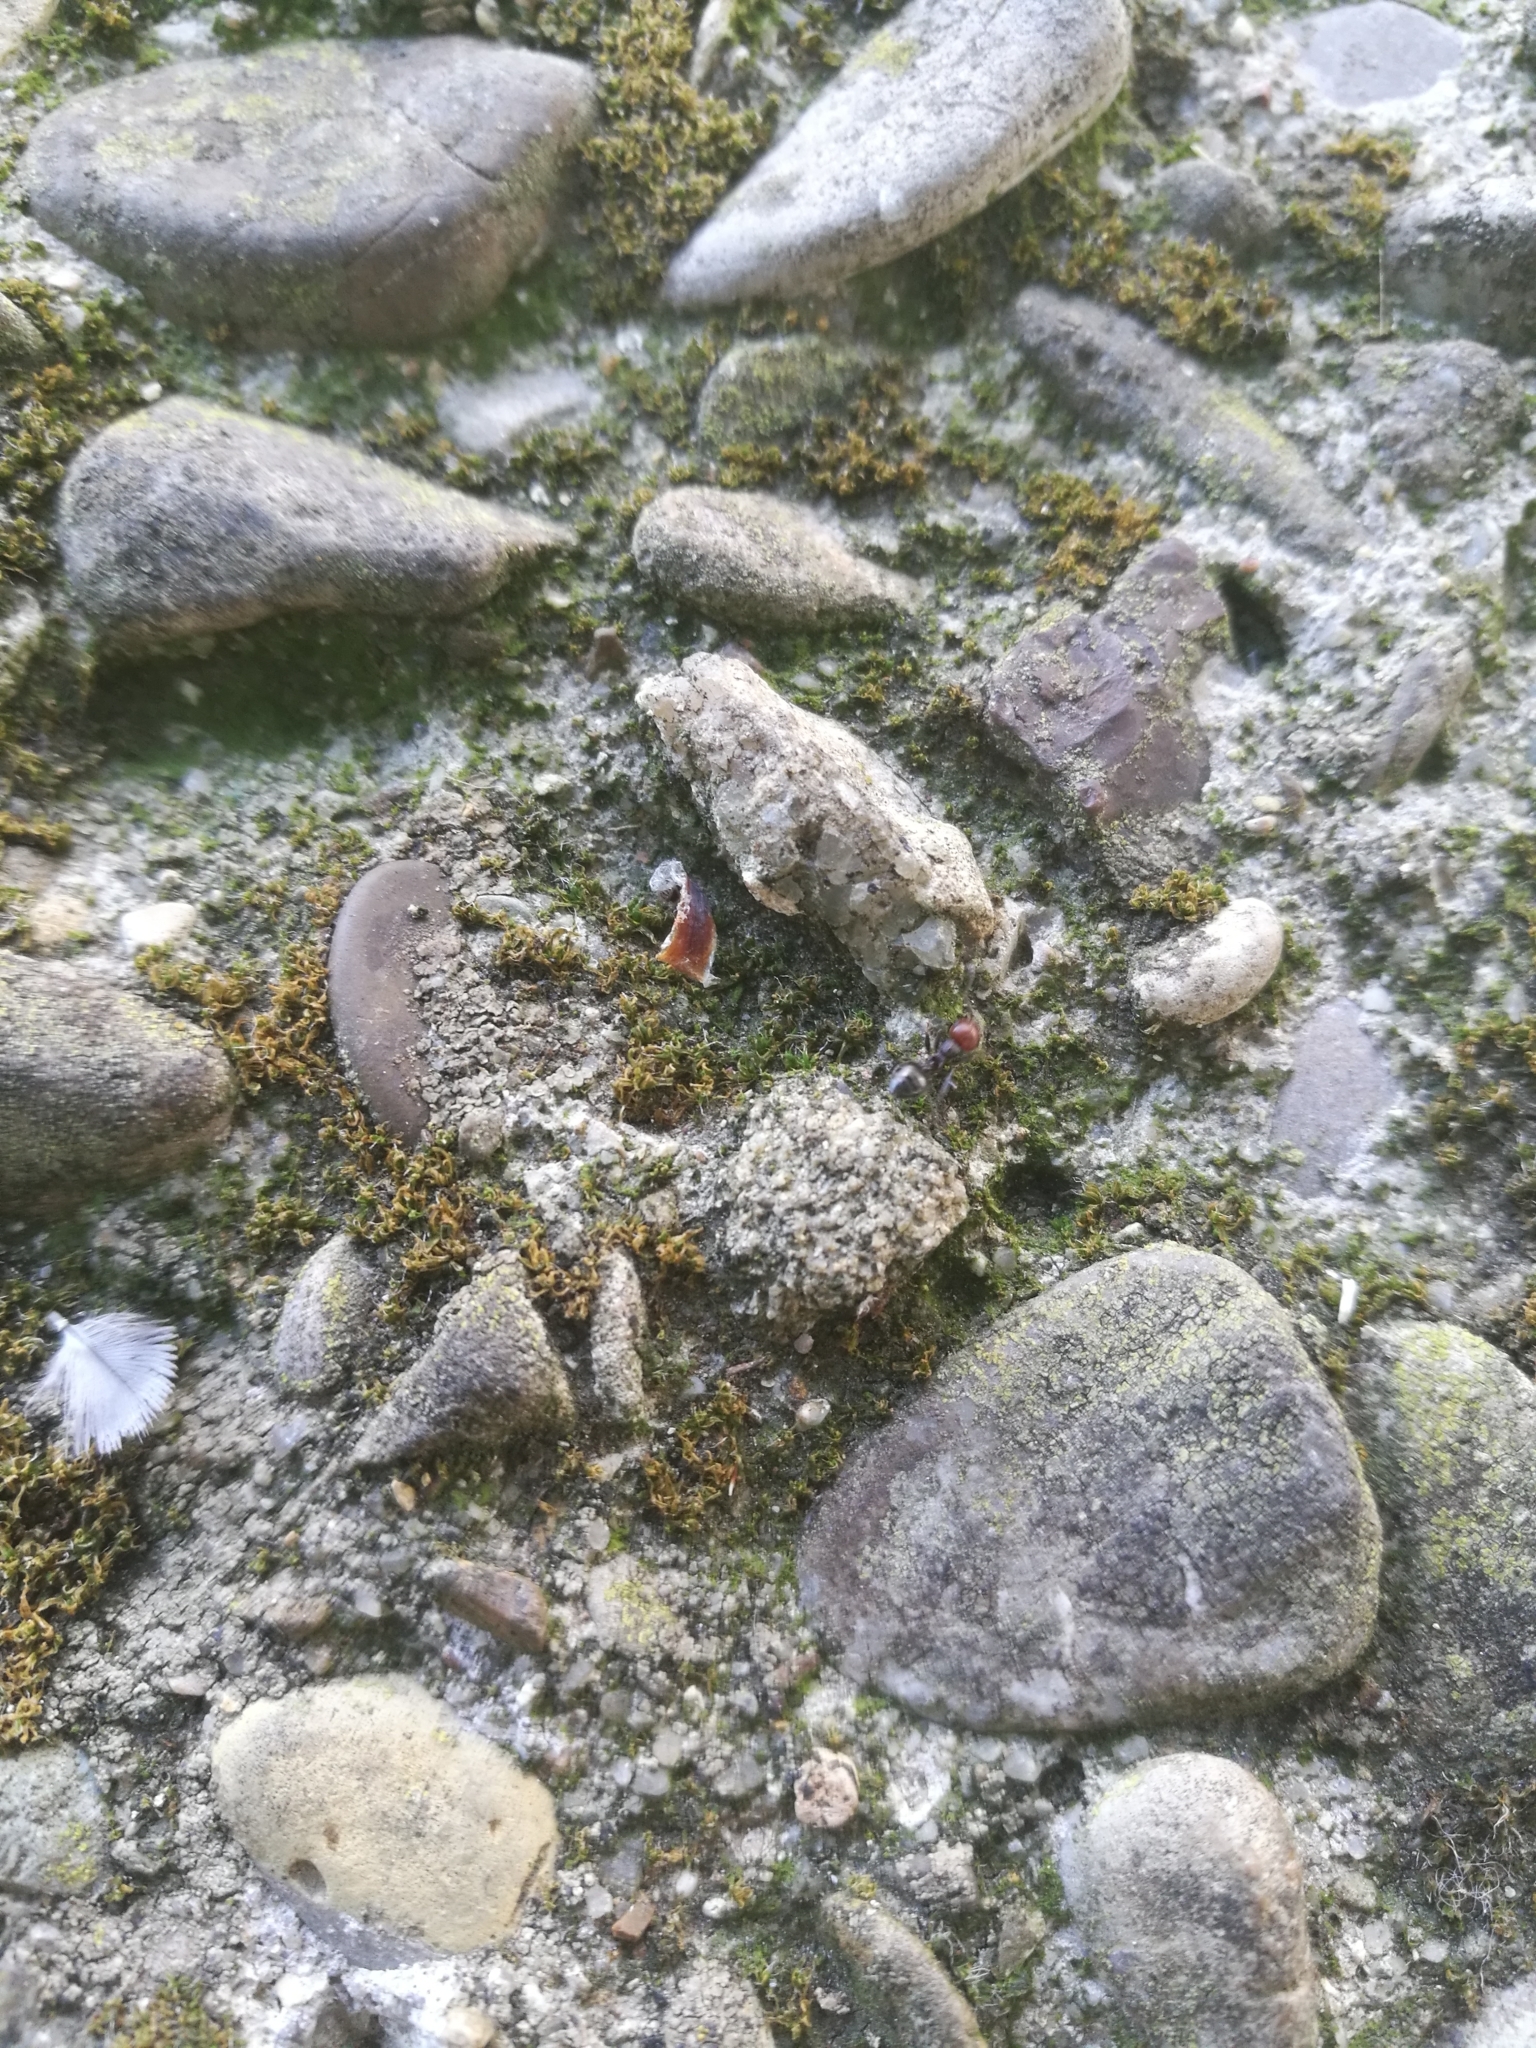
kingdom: Animalia
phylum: Arthropoda
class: Insecta
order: Hymenoptera
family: Formicidae
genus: Crematogaster
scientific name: Crematogaster scutellaris
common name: Fourmi du liège
